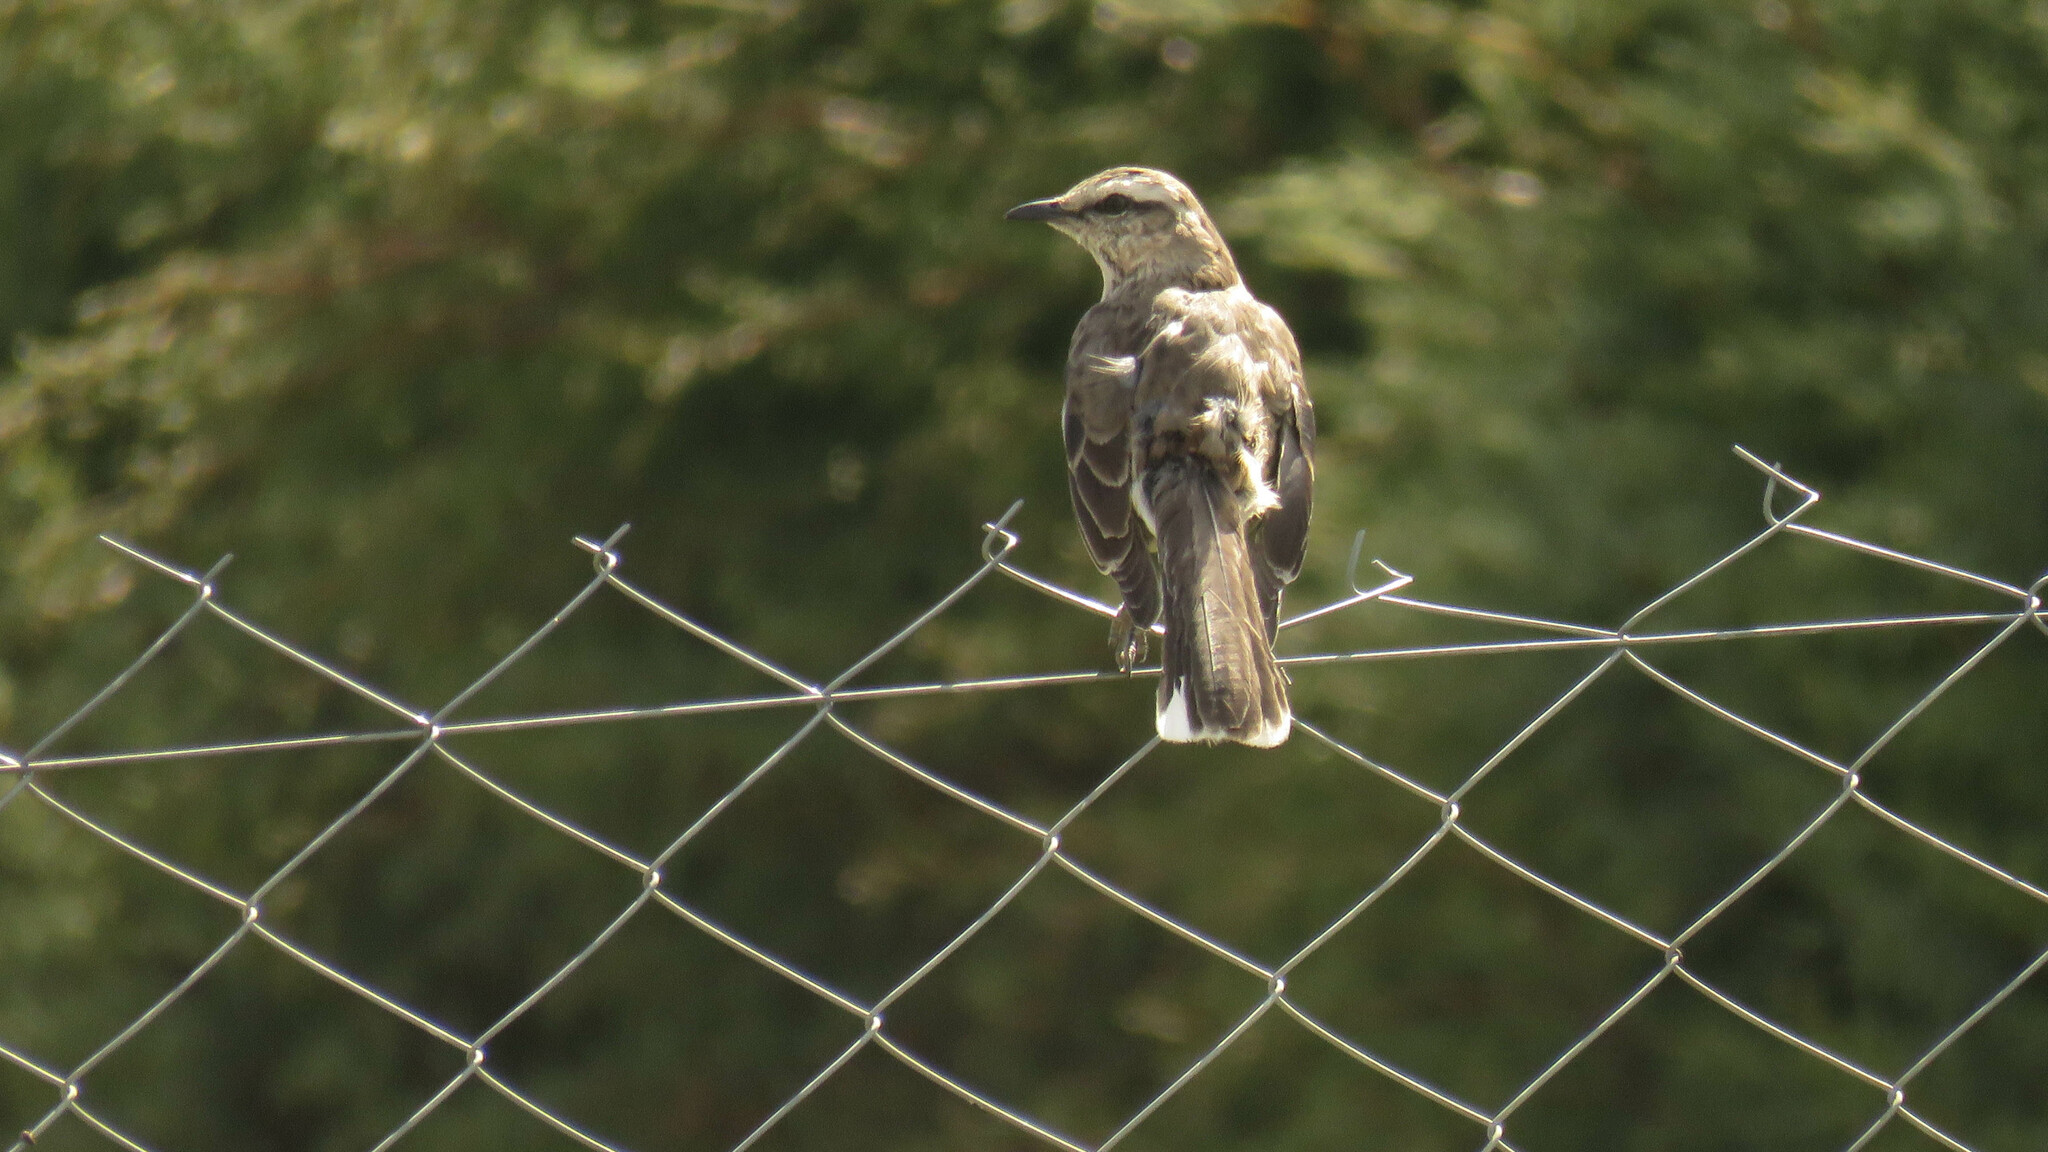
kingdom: Animalia
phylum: Chordata
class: Aves
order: Passeriformes
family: Mimidae
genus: Mimus
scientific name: Mimus saturninus
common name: Chalk-browed mockingbird
